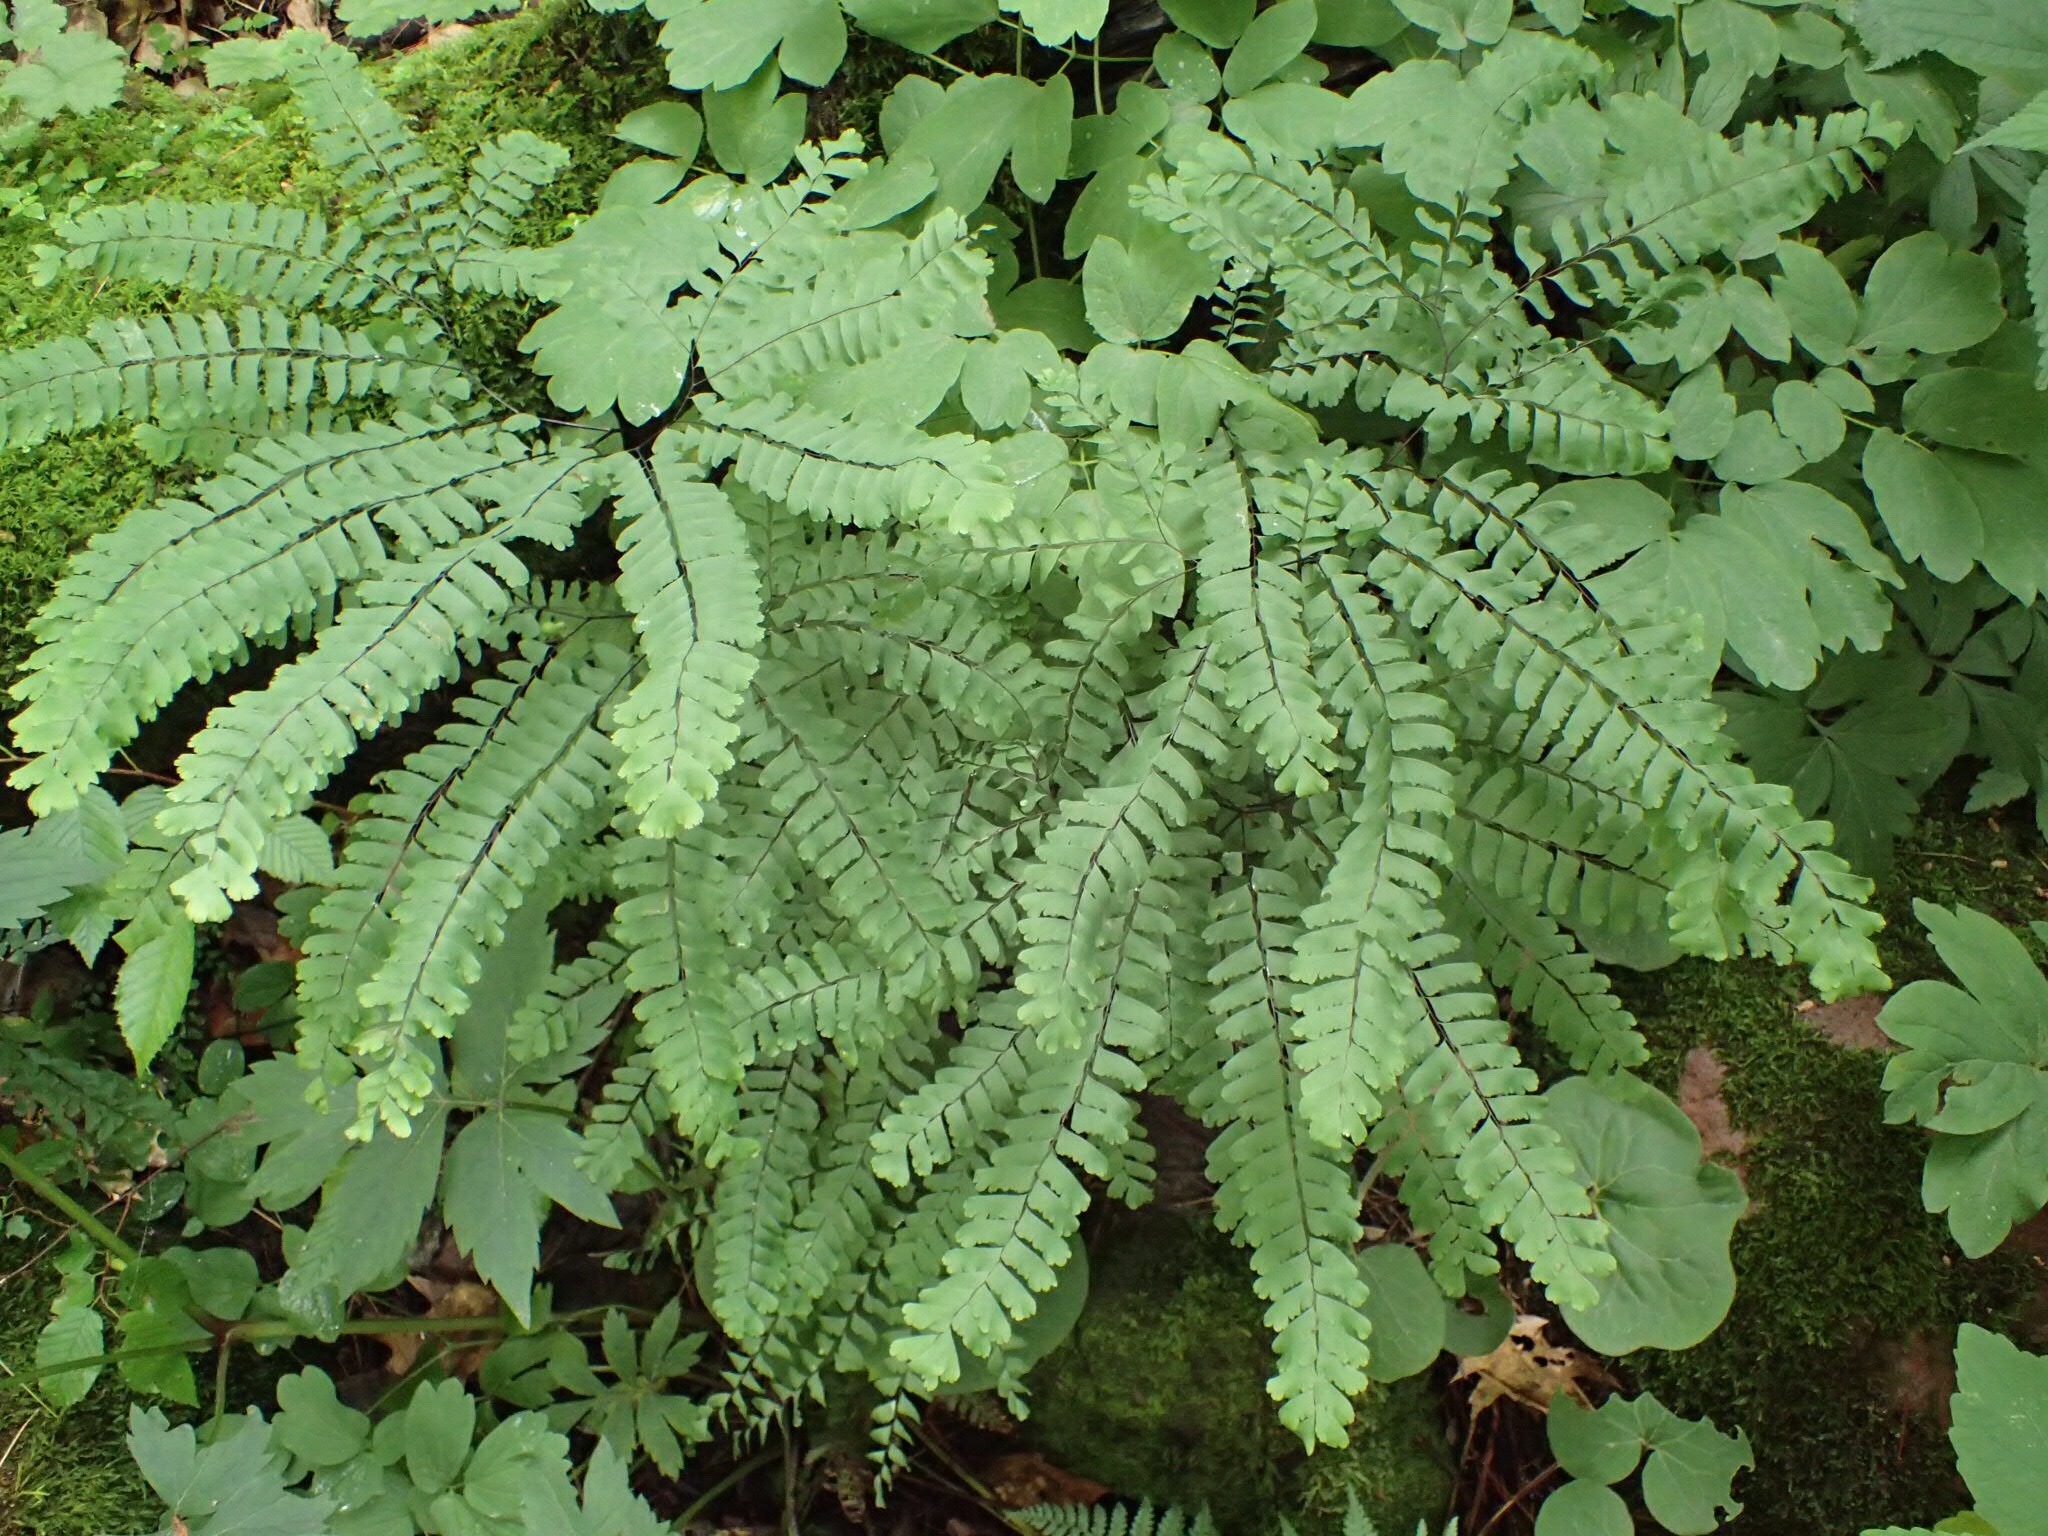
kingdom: Plantae
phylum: Tracheophyta
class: Polypodiopsida
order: Polypodiales
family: Pteridaceae
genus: Adiantum
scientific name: Adiantum pedatum
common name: Five-finger fern
